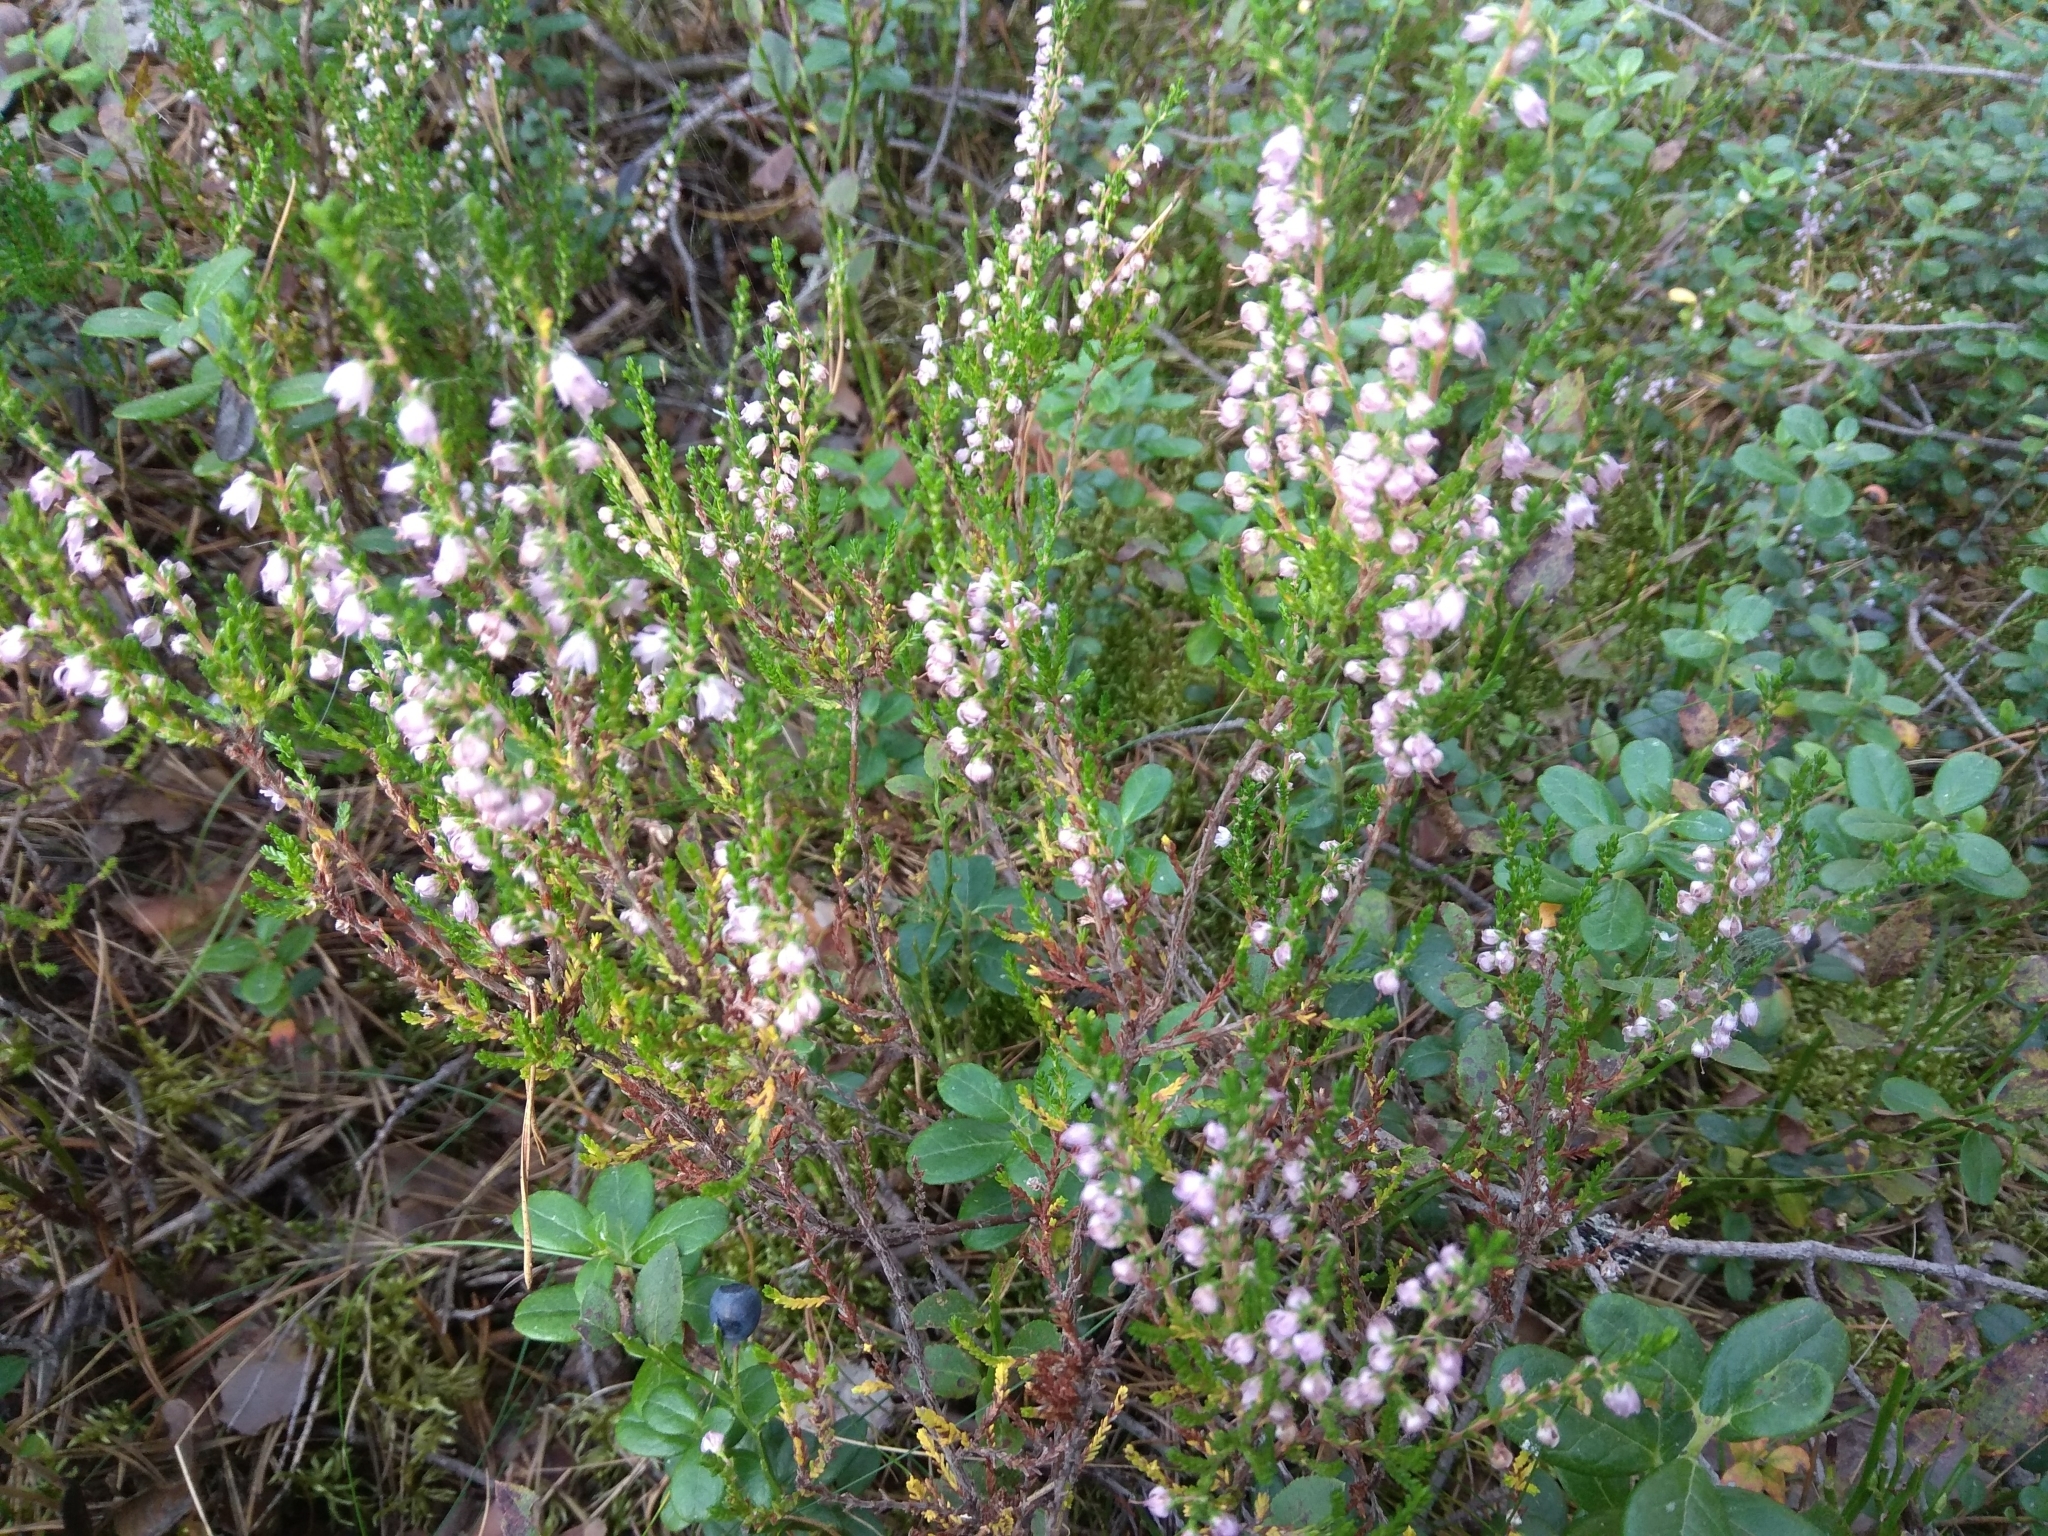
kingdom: Plantae
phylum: Tracheophyta
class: Magnoliopsida
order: Ericales
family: Ericaceae
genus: Calluna
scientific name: Calluna vulgaris
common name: Heather
